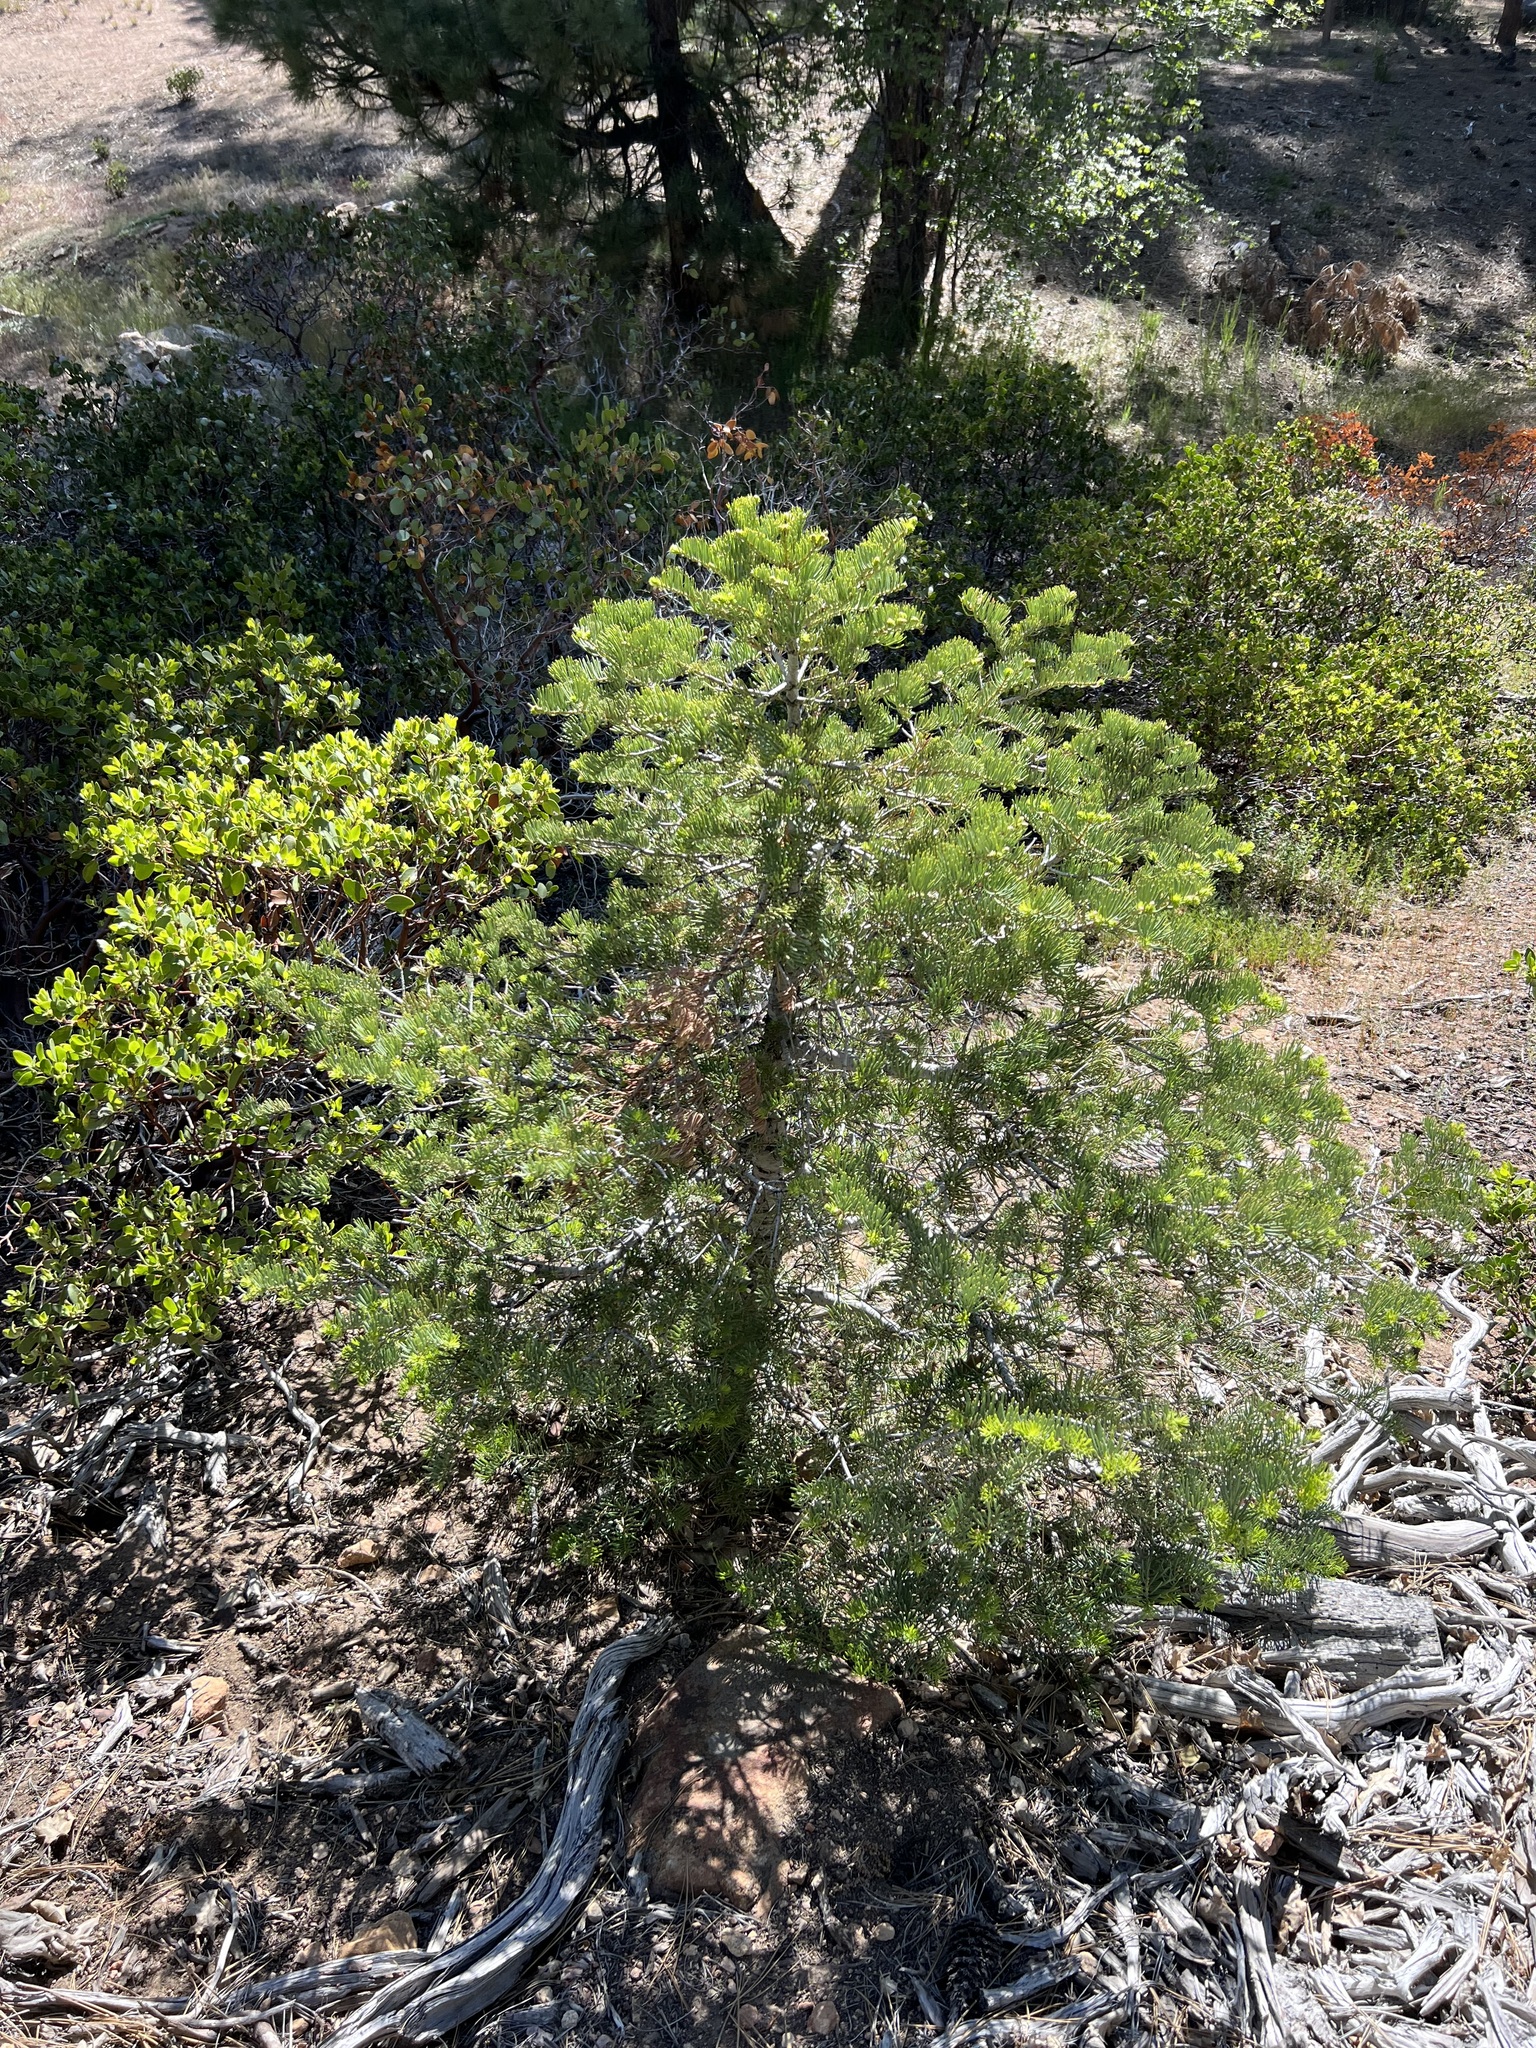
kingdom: Plantae
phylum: Tracheophyta
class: Pinopsida
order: Pinales
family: Pinaceae
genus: Abies
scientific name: Abies concolor
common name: Colorado fir
